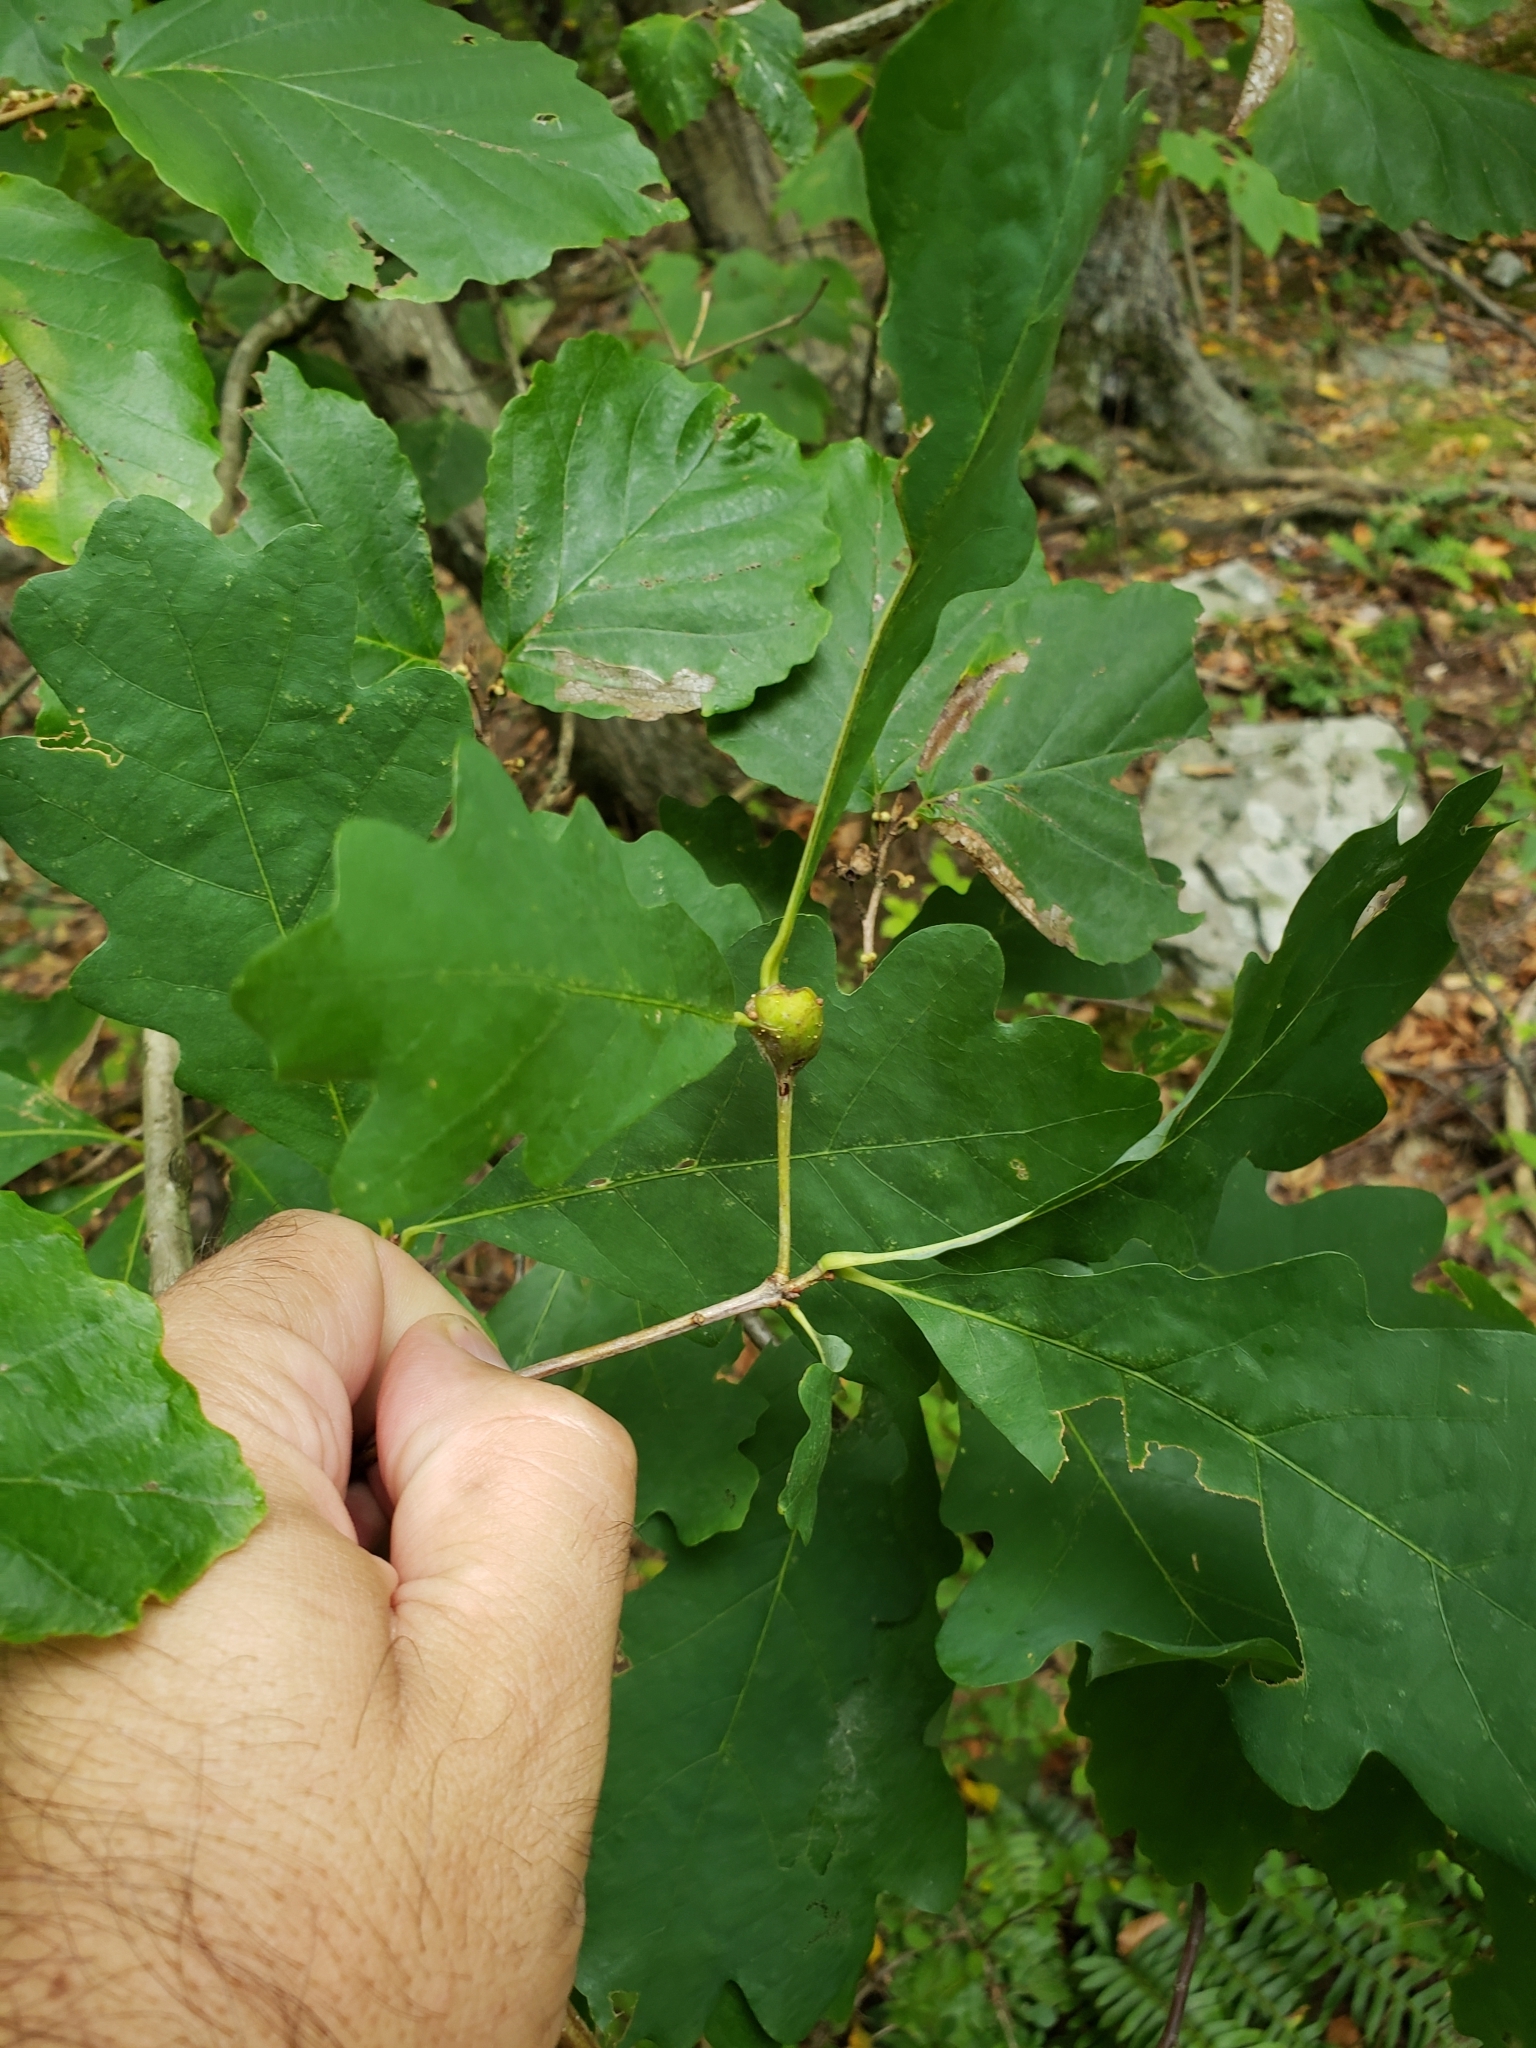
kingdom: Animalia
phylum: Arthropoda
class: Insecta
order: Hymenoptera
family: Cynipidae
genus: Callirhytis
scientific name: Callirhytis clavula
